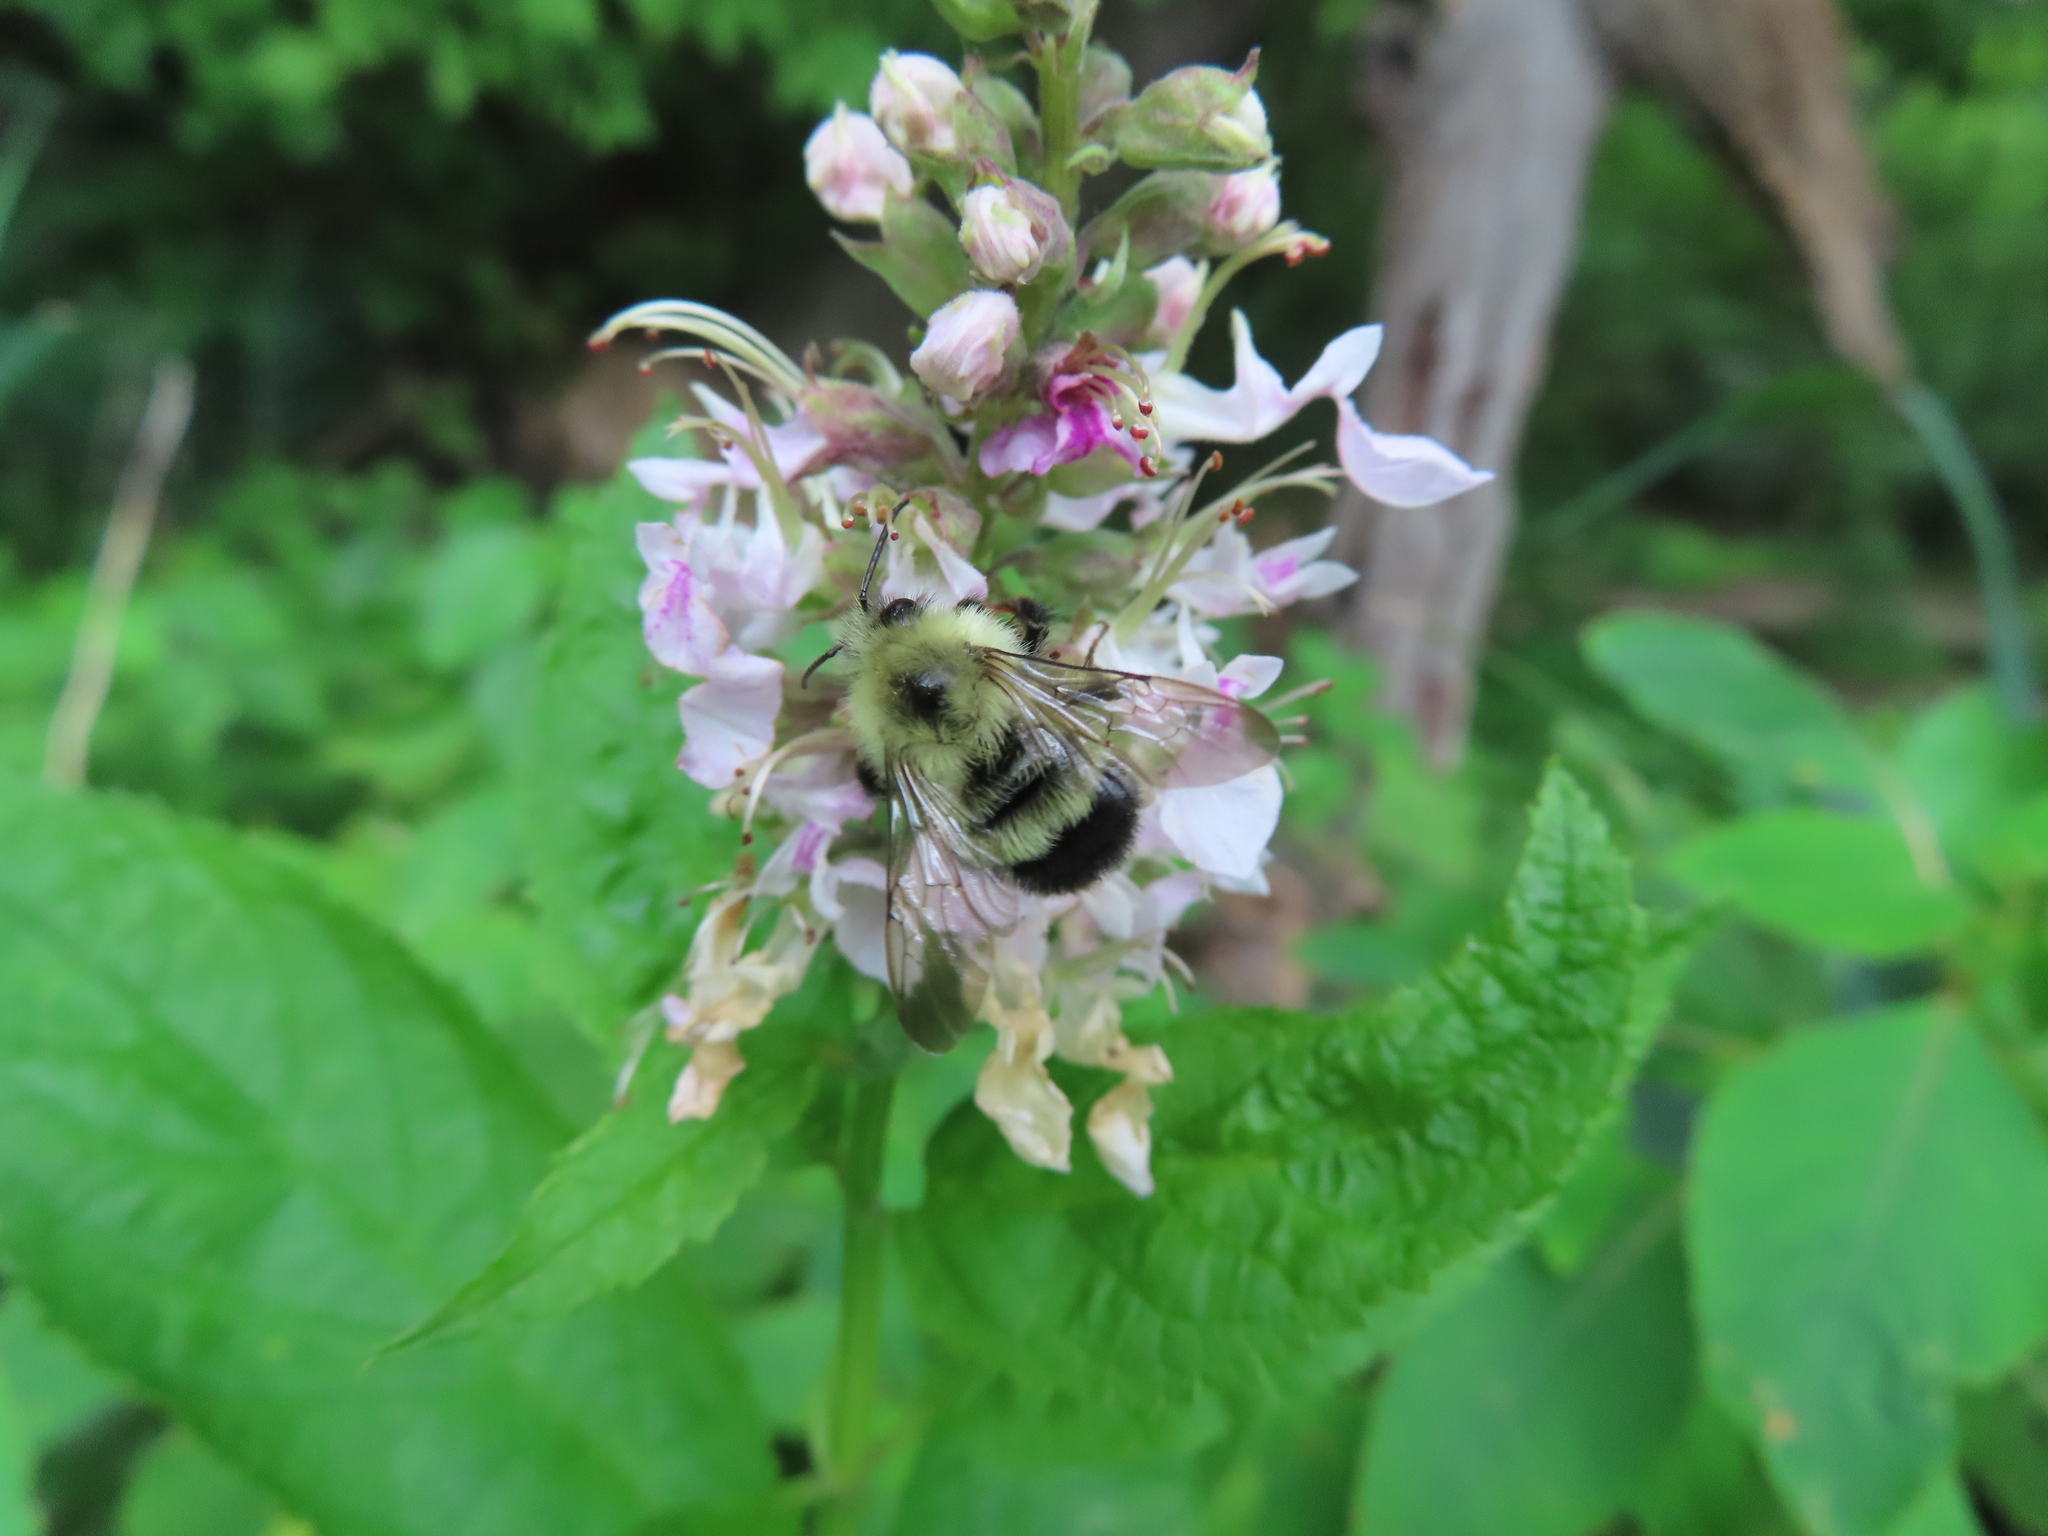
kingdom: Animalia
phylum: Arthropoda
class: Insecta
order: Hymenoptera
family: Apidae
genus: Bombus
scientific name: Bombus vagans
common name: Half-black bumble bee
